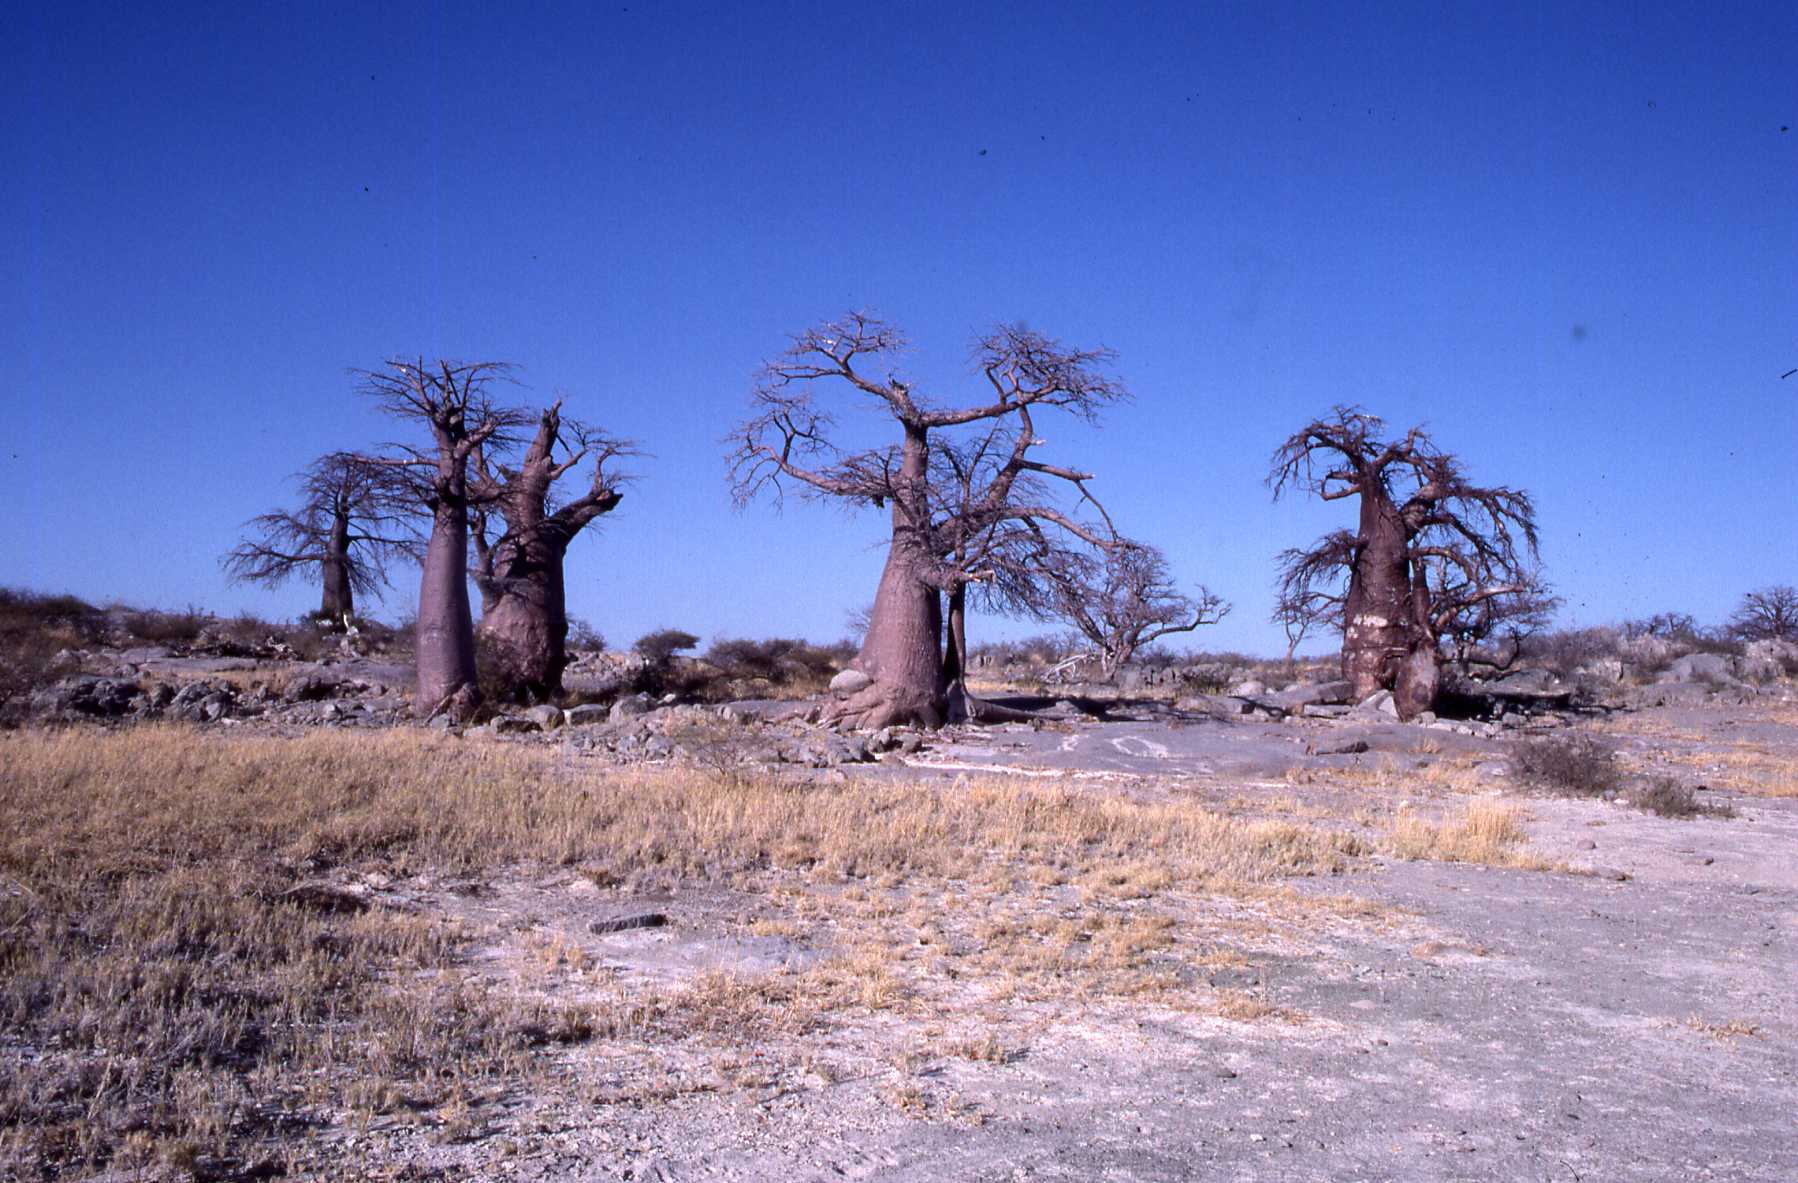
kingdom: Plantae
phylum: Tracheophyta
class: Magnoliopsida
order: Malvales
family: Malvaceae
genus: Adansonia
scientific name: Adansonia digitata
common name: Dead-rat-tree
